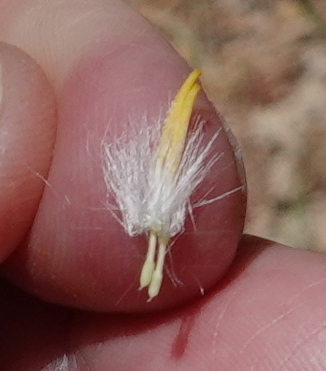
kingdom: Plantae
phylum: Tracheophyta
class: Magnoliopsida
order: Asterales
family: Asteraceae
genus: Agoseris
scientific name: Agoseris retrorsa
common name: Spearleaf agoseris
